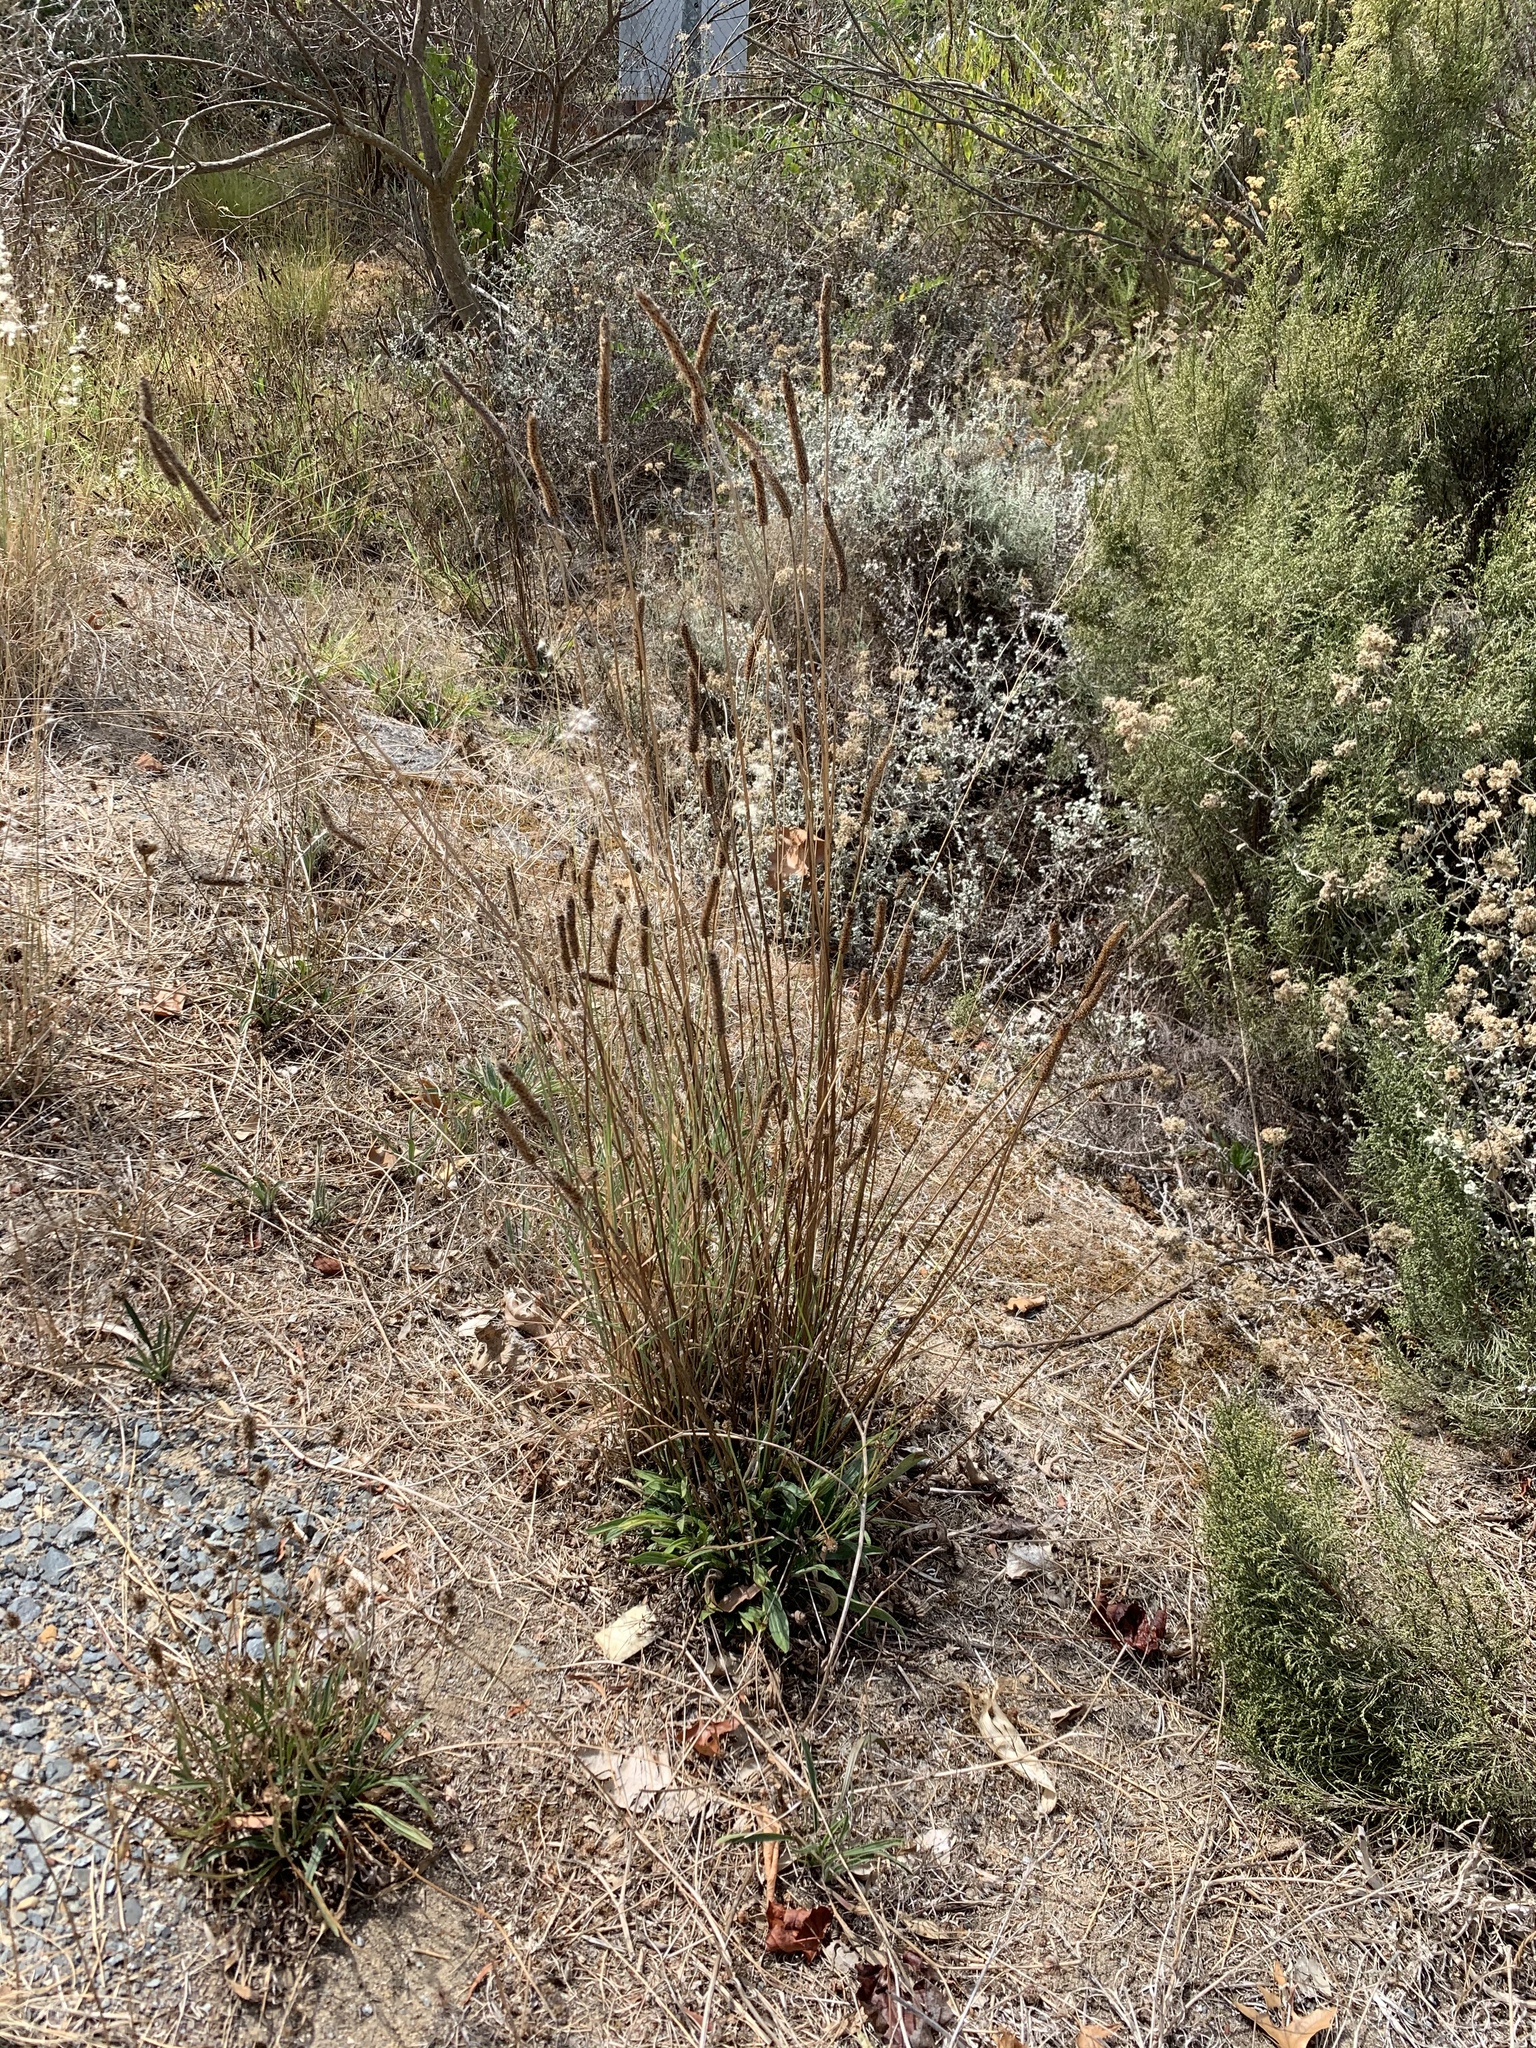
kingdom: Plantae
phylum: Tracheophyta
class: Magnoliopsida
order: Lamiales
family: Plantaginaceae
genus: Plantago
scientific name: Plantago lanceolata
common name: Ribwort plantain
